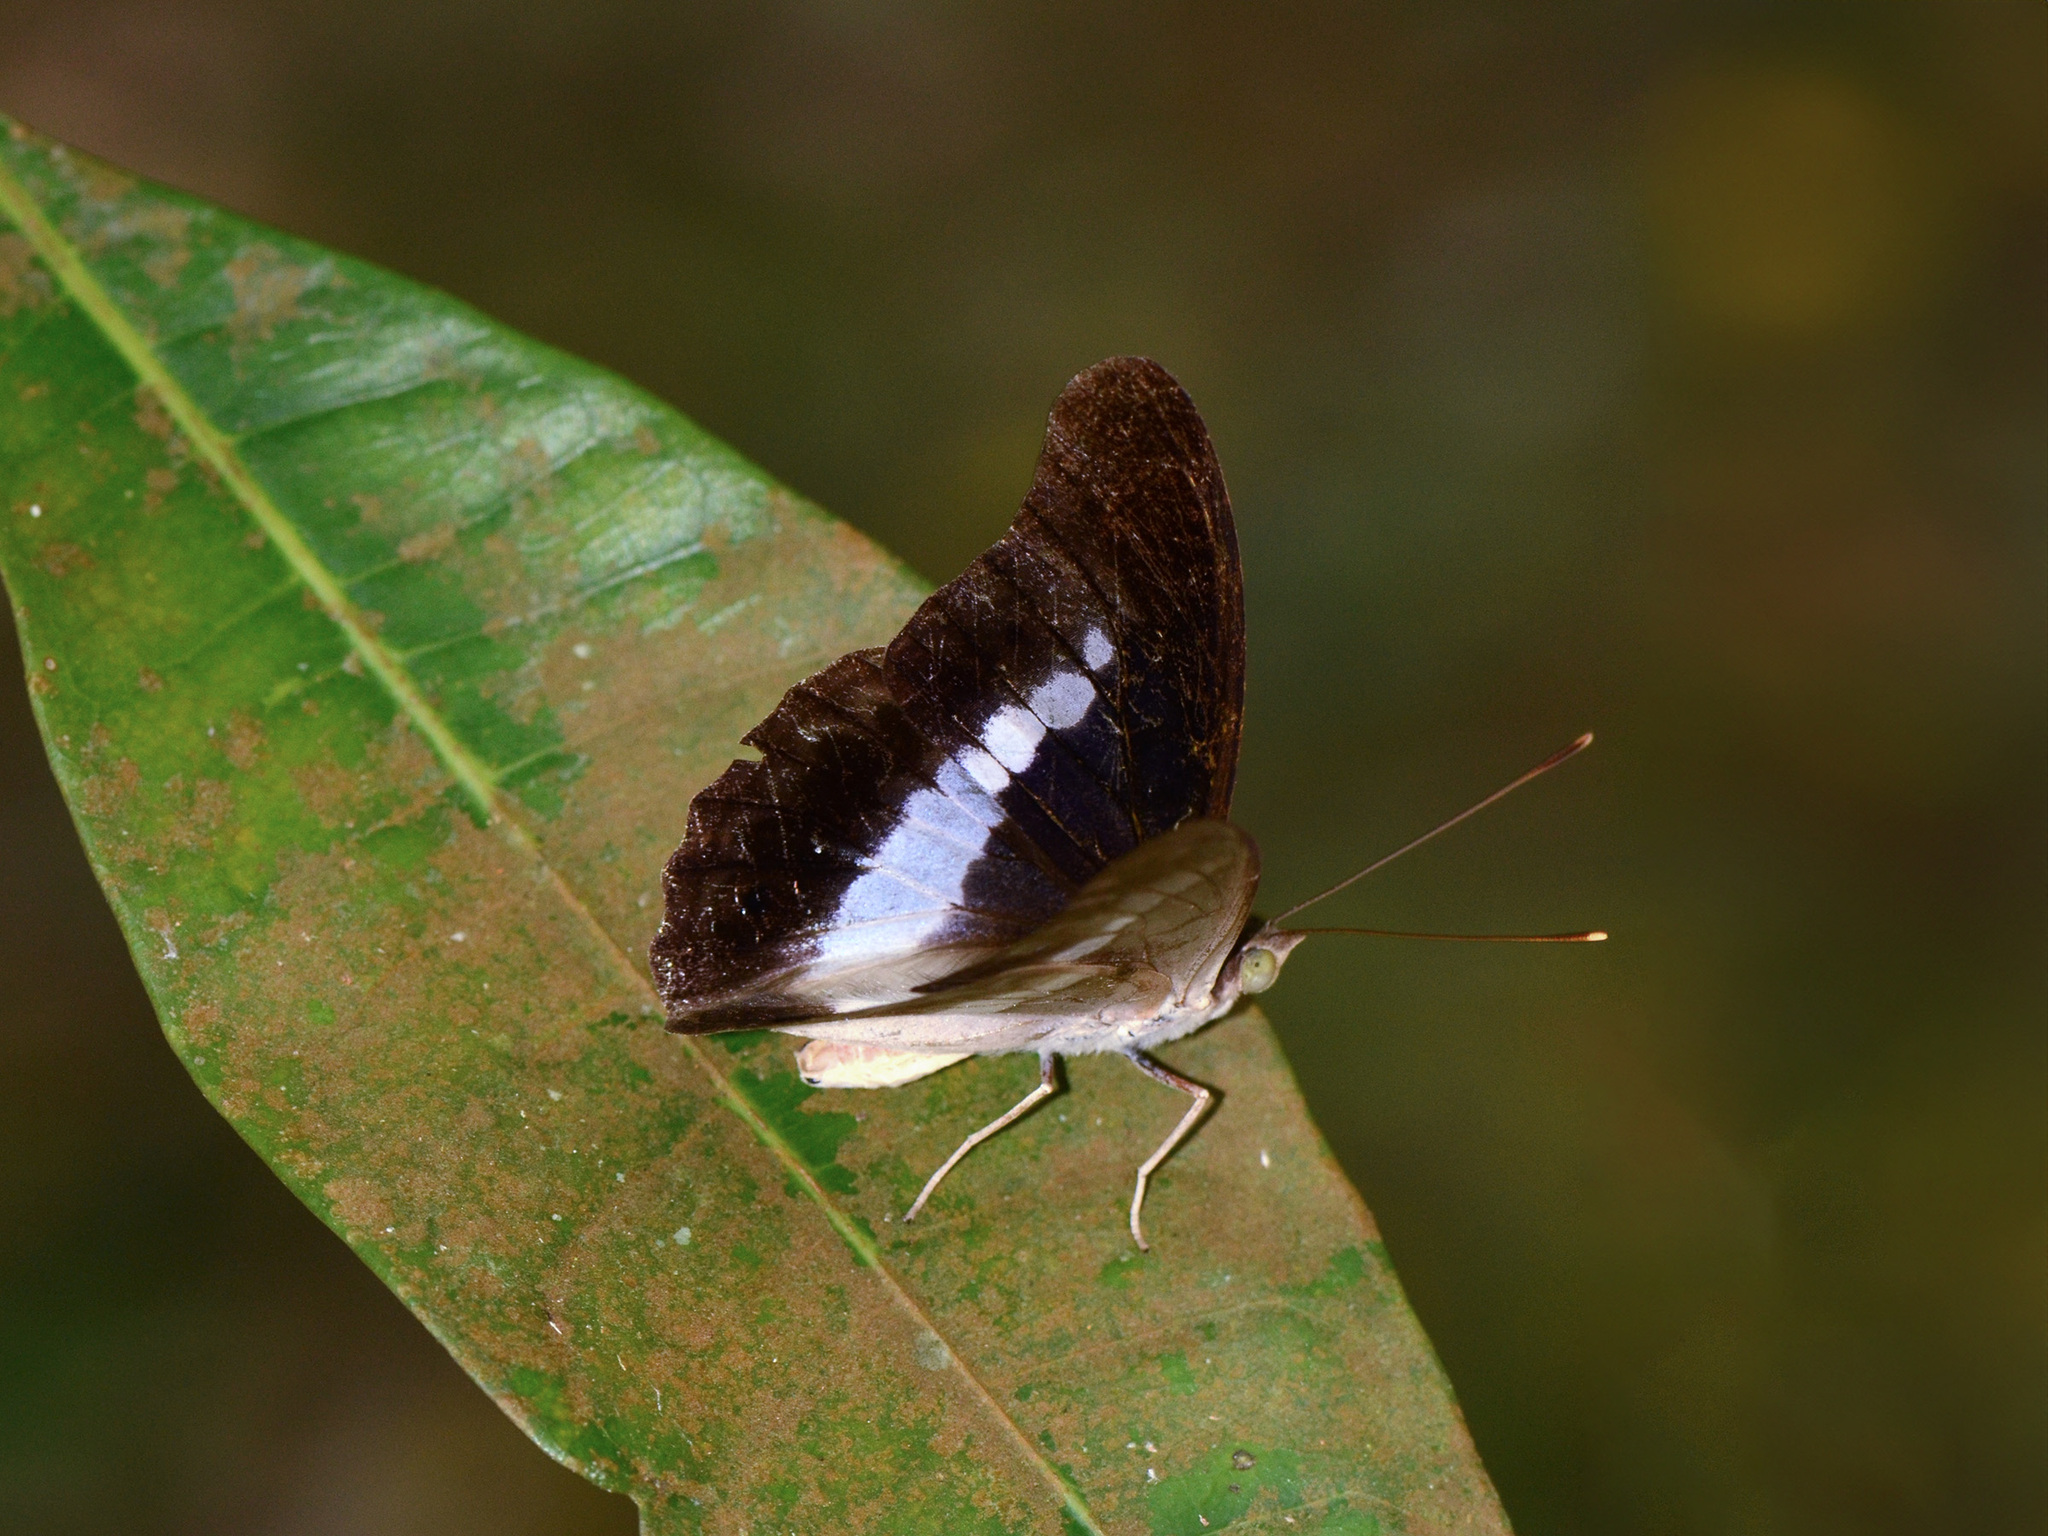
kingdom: Animalia
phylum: Arthropoda
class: Insecta
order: Lepidoptera
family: Nymphalidae
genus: Eulaceura
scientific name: Eulaceura osteria
